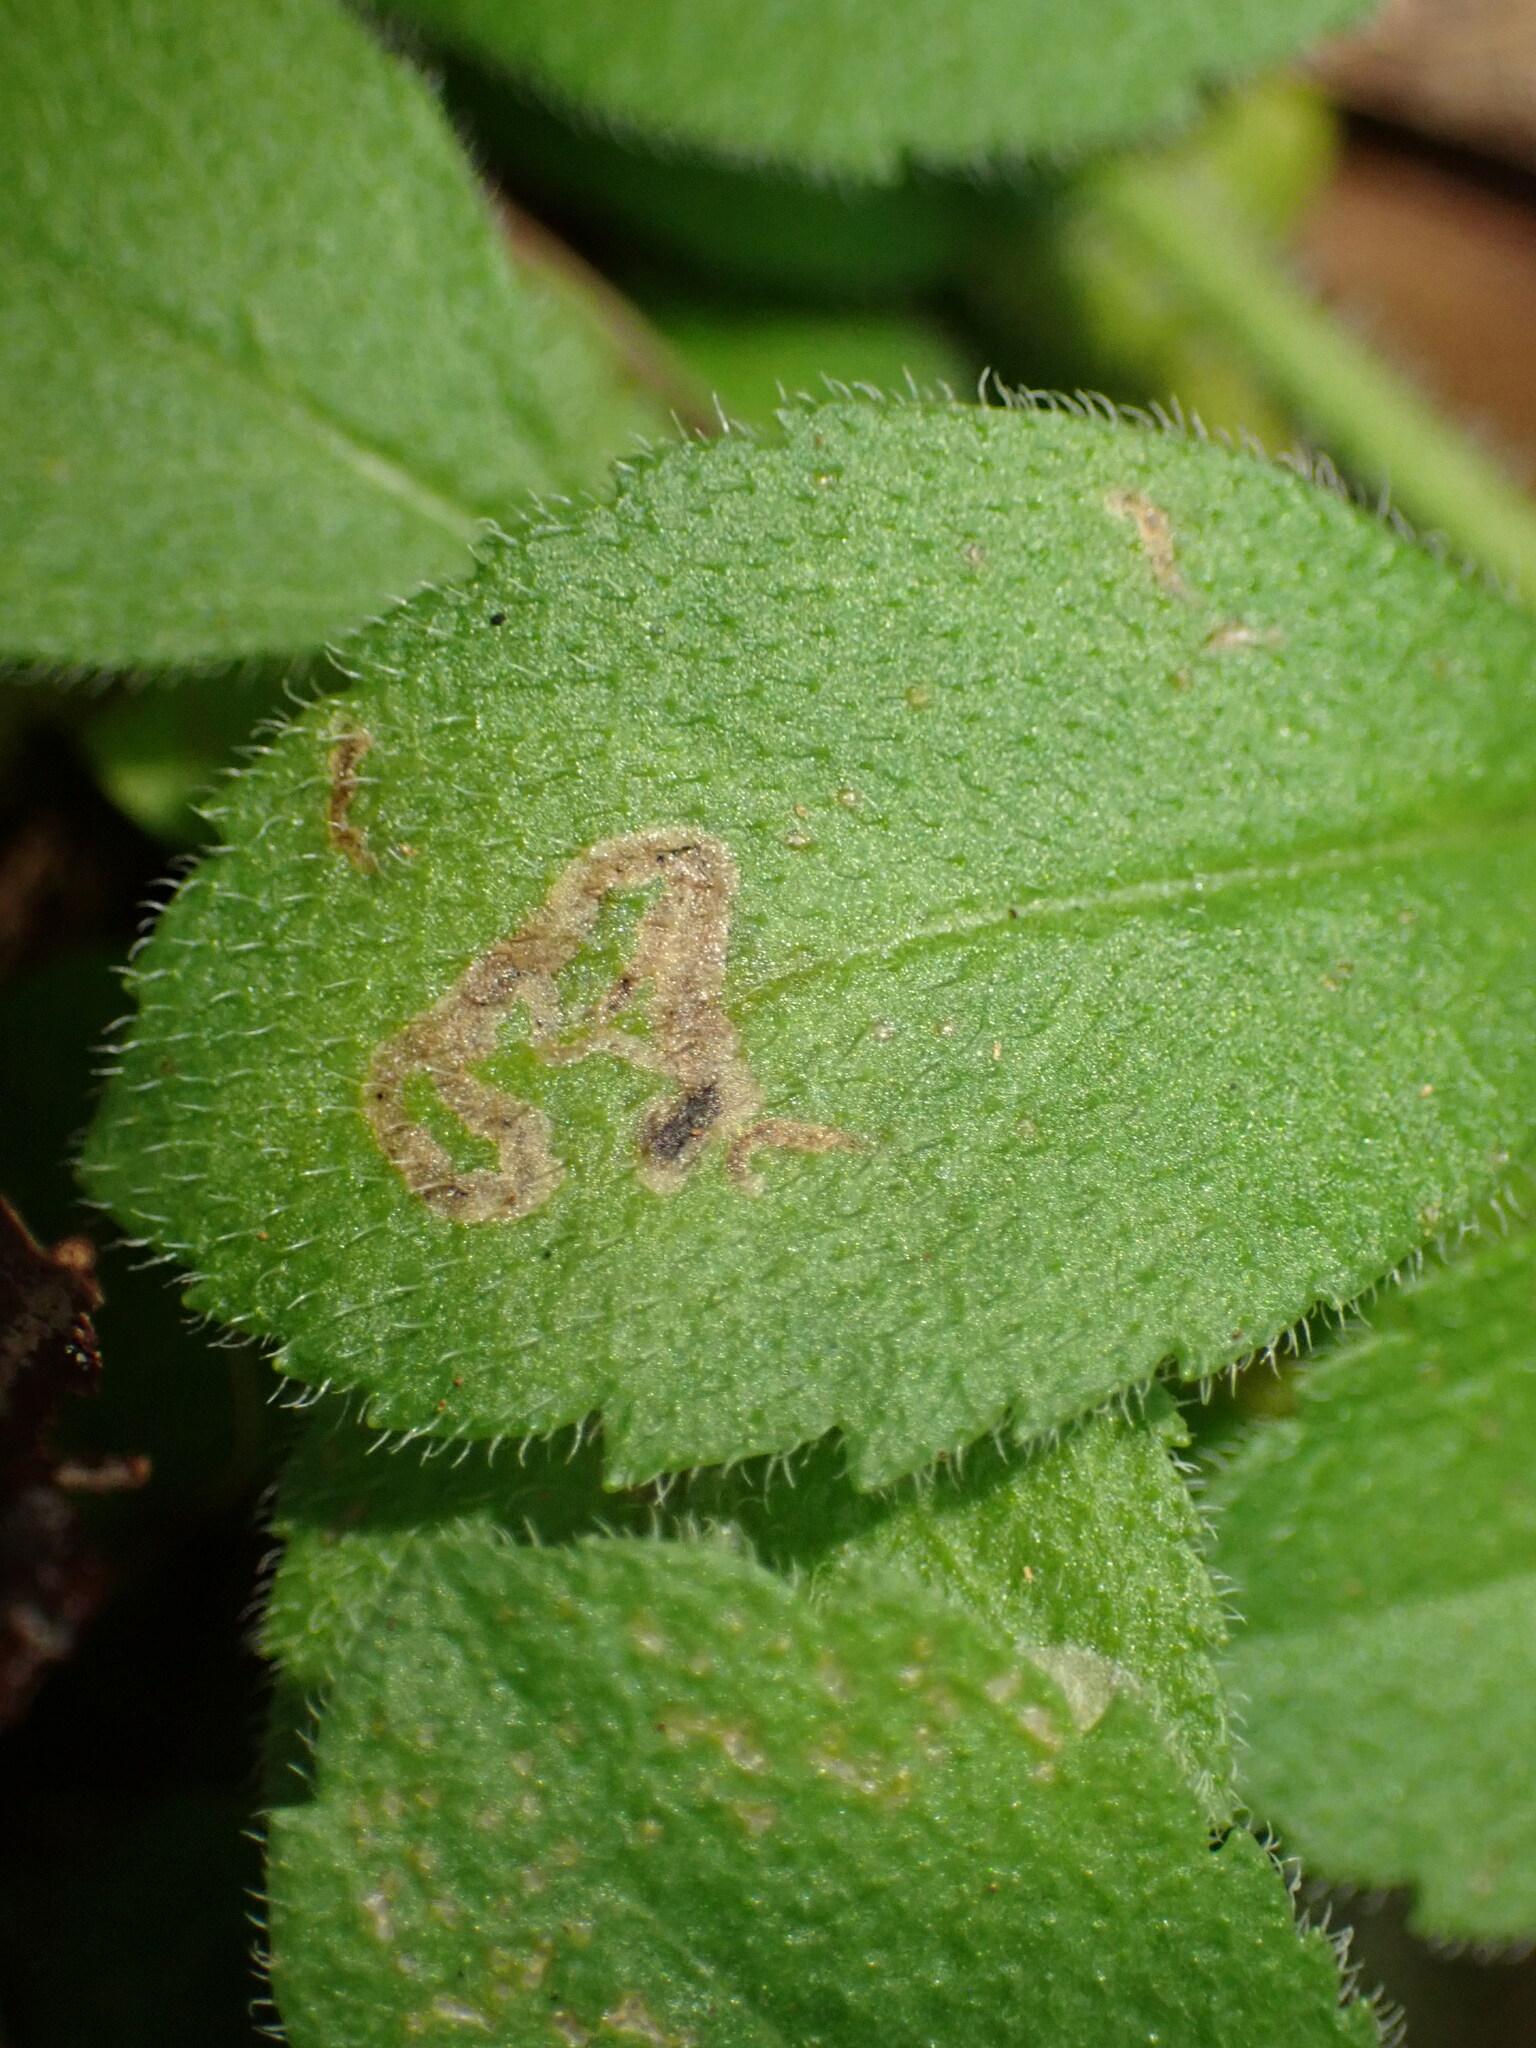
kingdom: Animalia
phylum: Arthropoda
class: Insecta
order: Diptera
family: Agromyzidae
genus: Phytomyza
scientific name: Phytomyza crassiseta
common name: Leaf-miner fly
